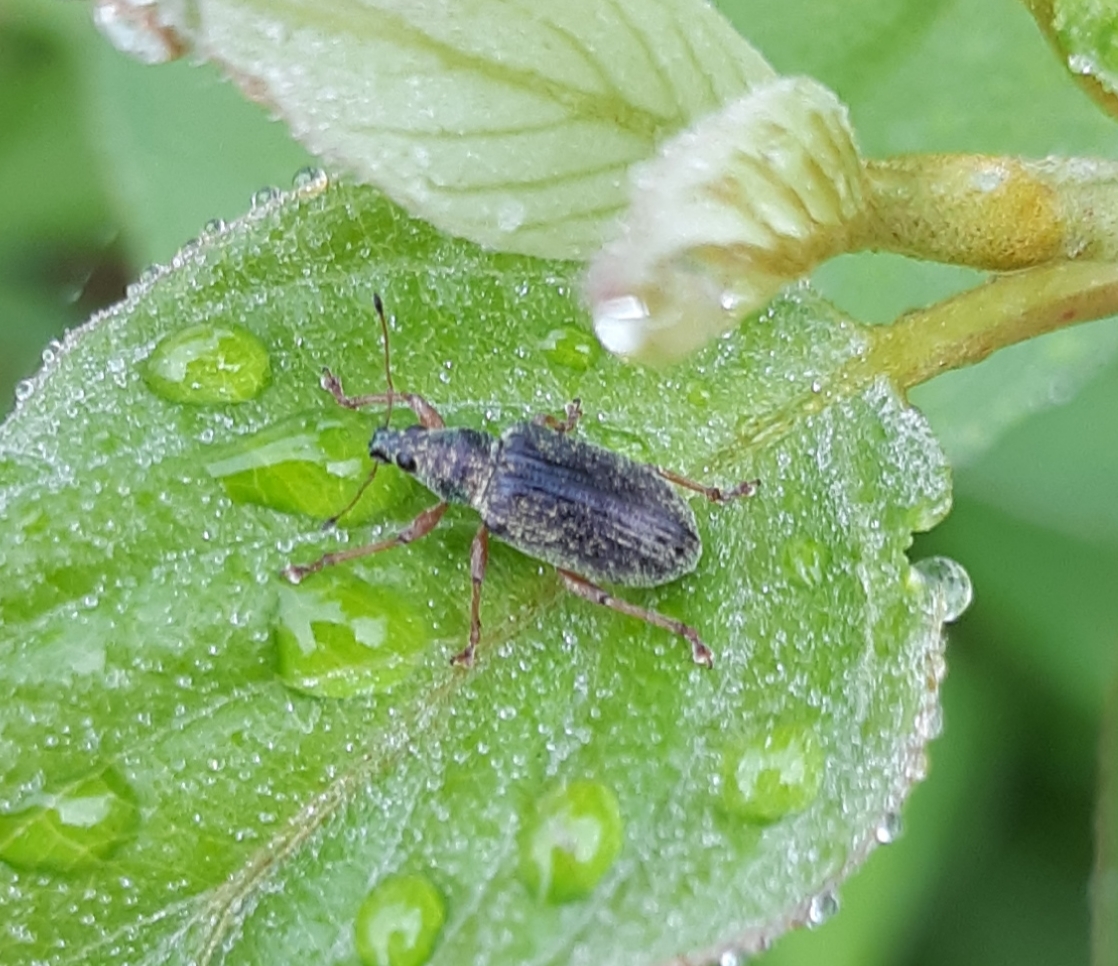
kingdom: Animalia
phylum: Arthropoda
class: Insecta
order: Coleoptera
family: Curculionidae
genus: Polydrusus
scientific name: Polydrusus formosus
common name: Weevil
